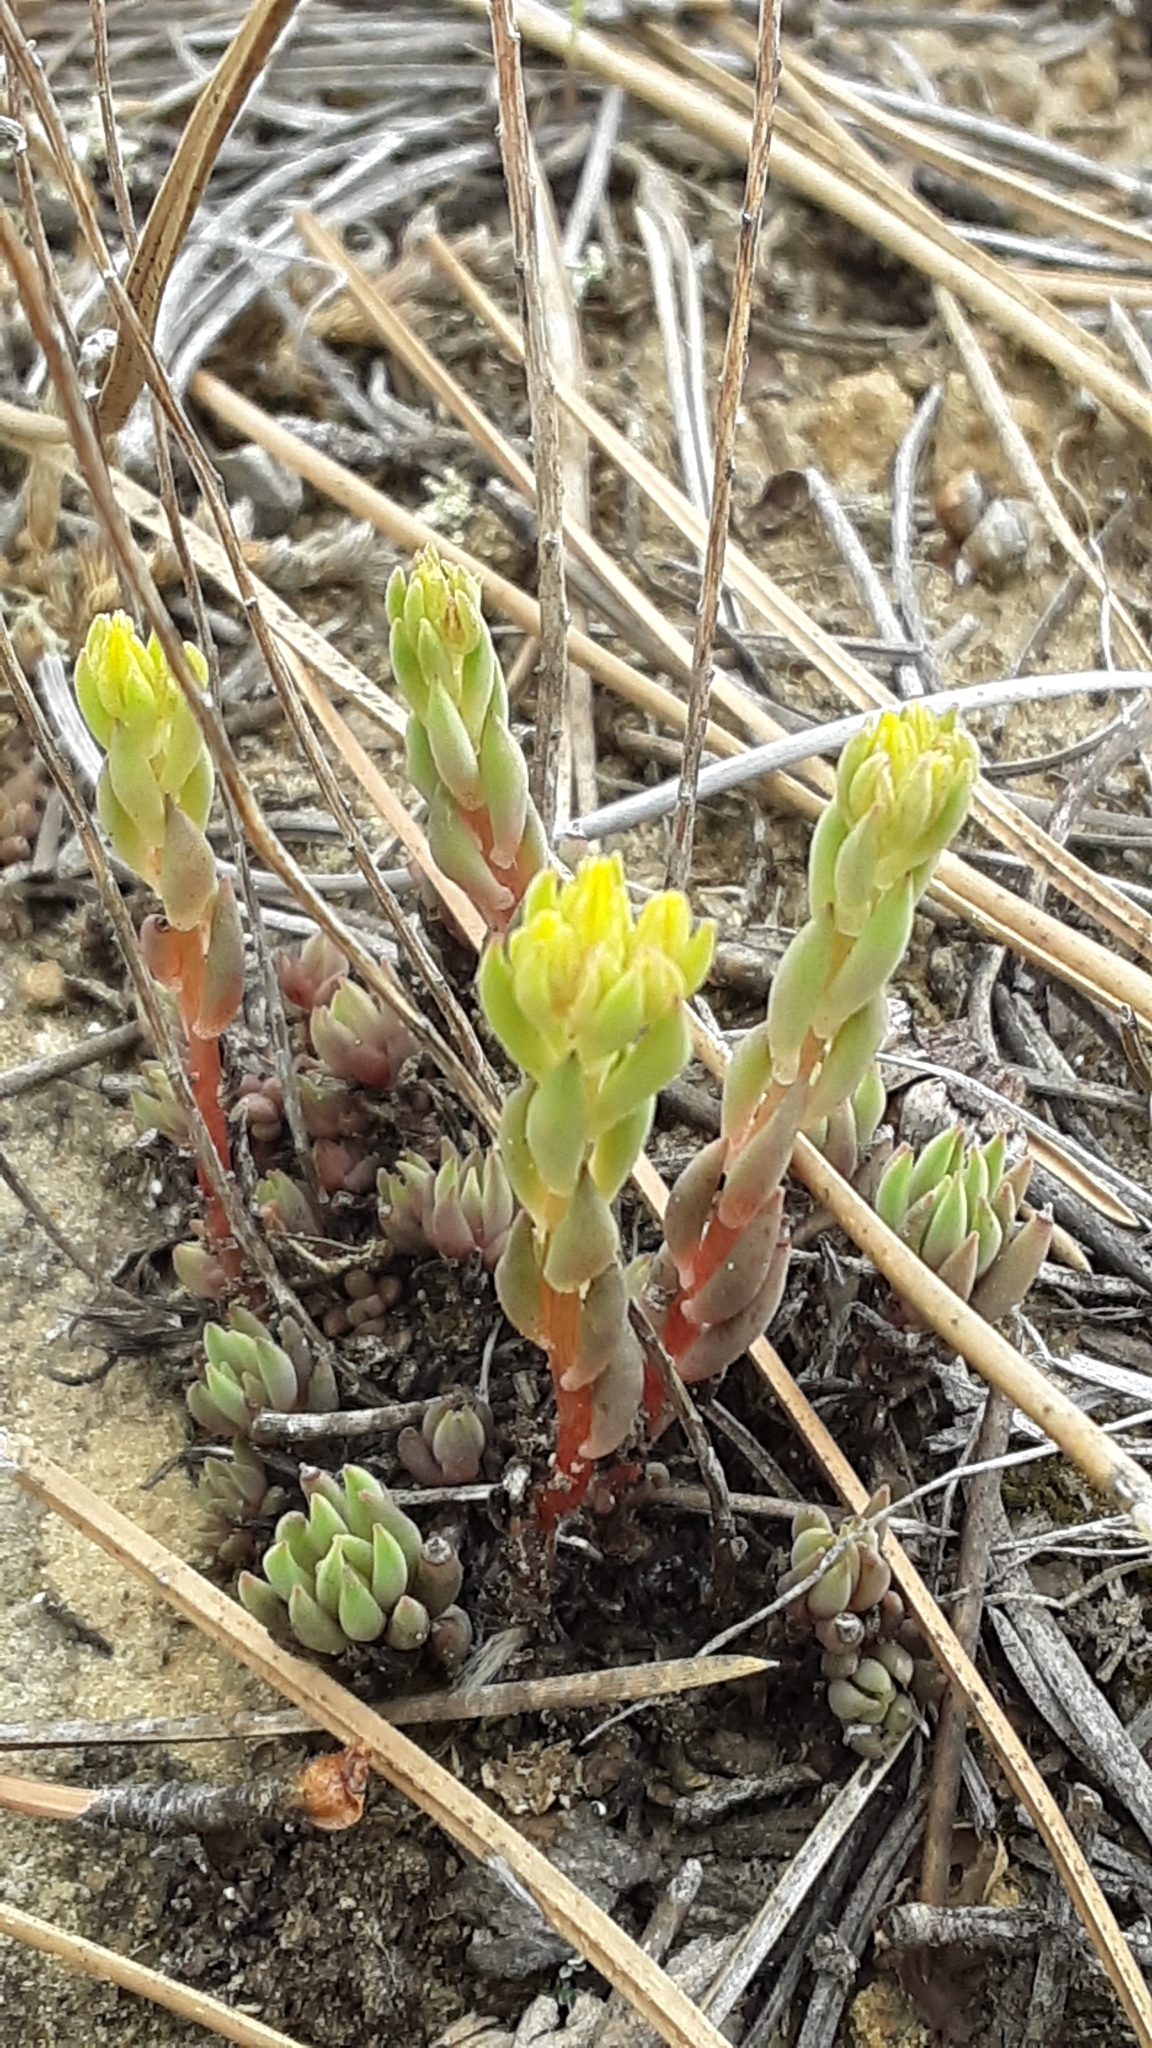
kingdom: Plantae
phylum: Tracheophyta
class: Magnoliopsida
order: Saxifragales
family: Crassulaceae
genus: Sedum
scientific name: Sedum lanceolatum
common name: Common stonecrop
